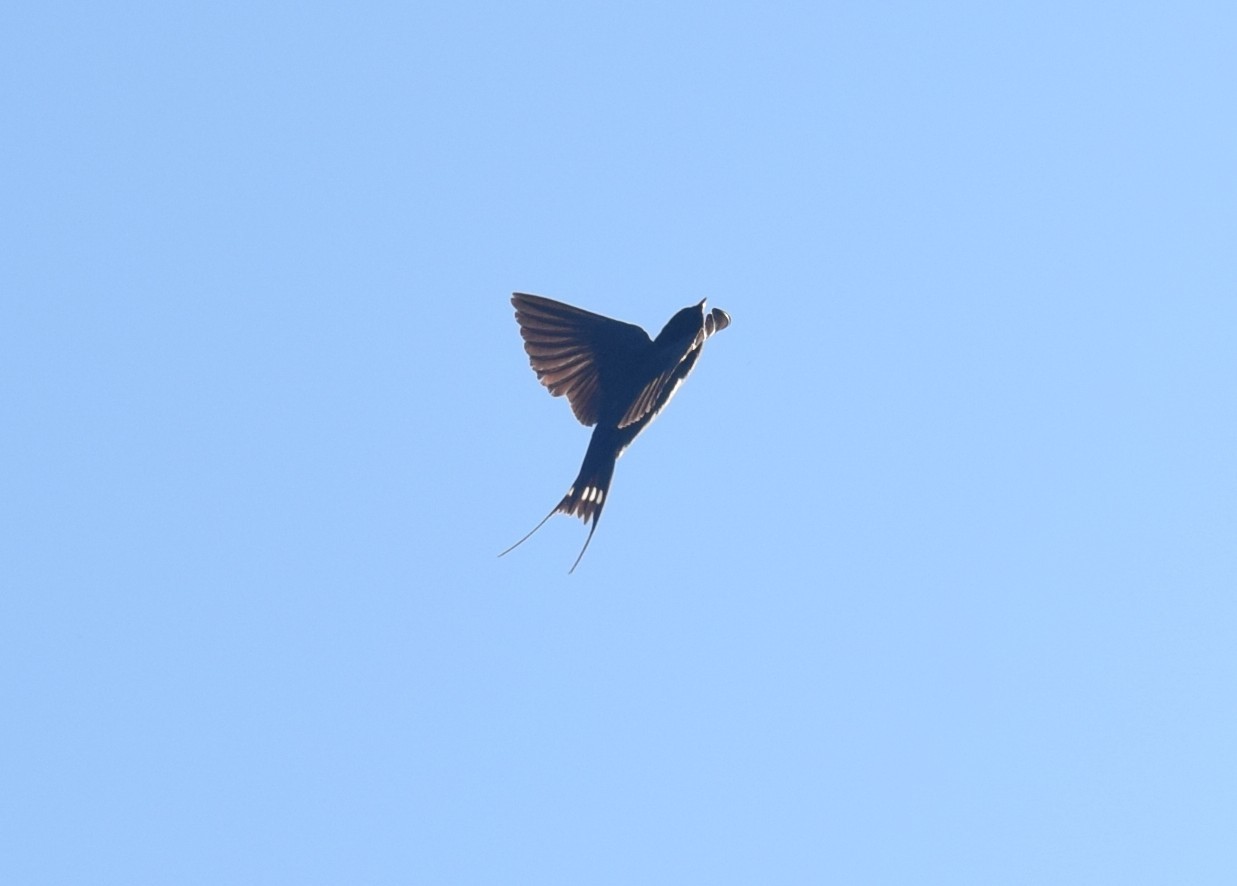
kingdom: Animalia
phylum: Chordata
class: Aves
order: Passeriformes
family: Hirundinidae
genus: Hirundo
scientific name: Hirundo rustica
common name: Barn swallow
